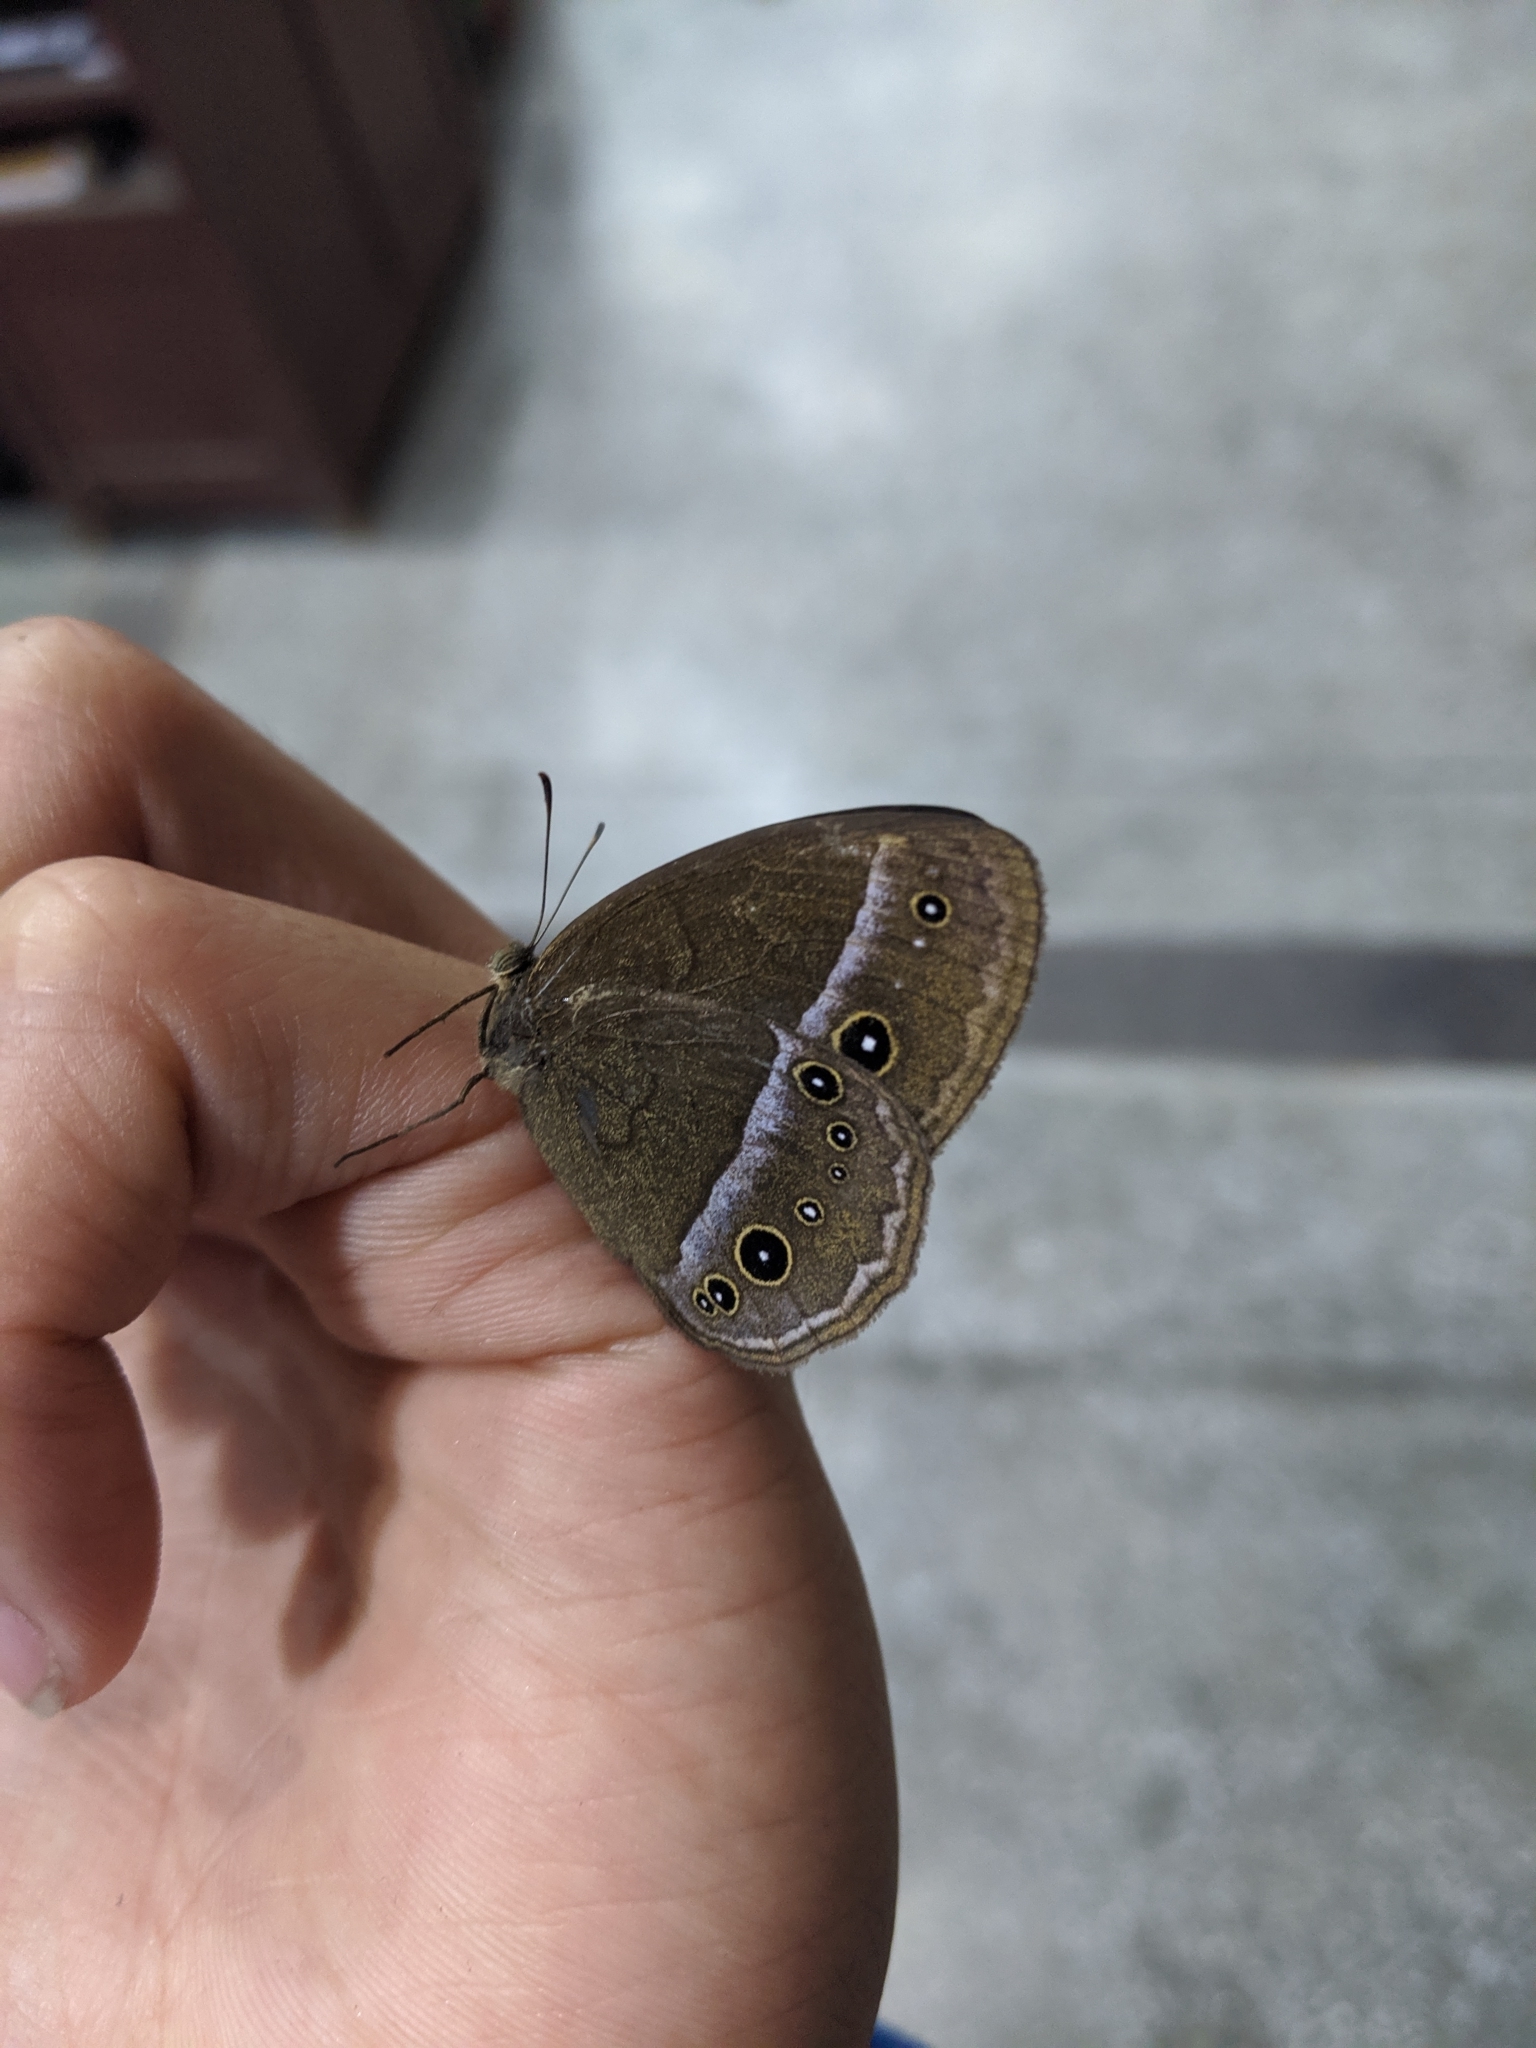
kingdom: Animalia
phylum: Arthropoda
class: Insecta
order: Lepidoptera
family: Nymphalidae
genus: Mycalesis
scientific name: Mycalesis francisca
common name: Lilacine bushbrown
